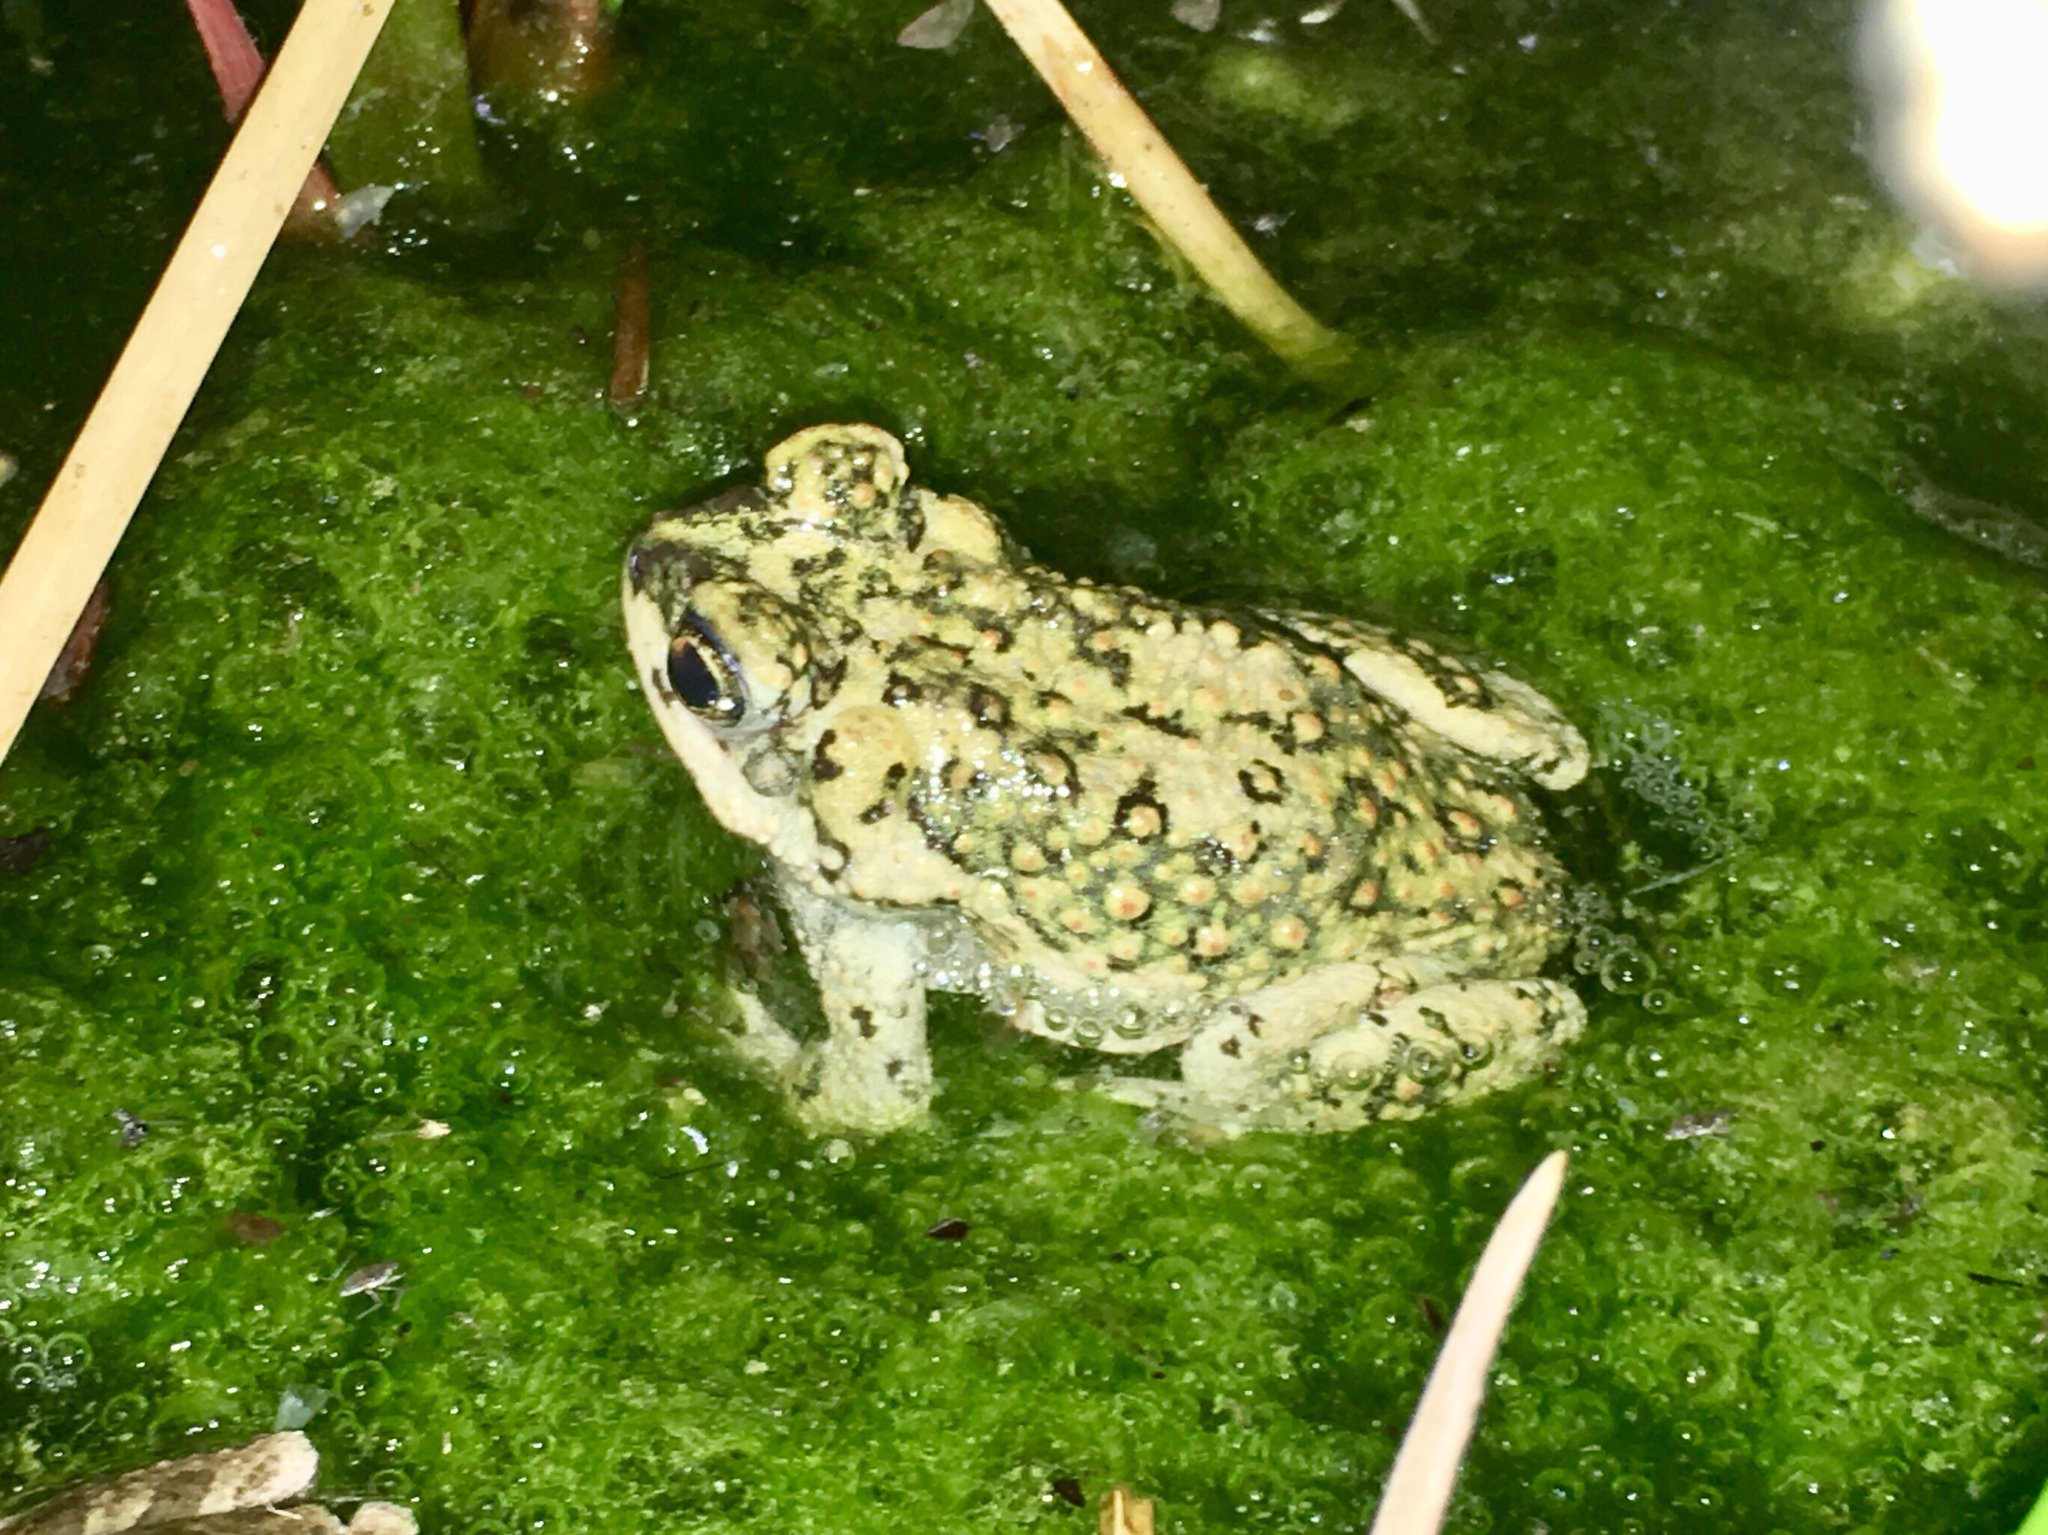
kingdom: Animalia
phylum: Chordata
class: Amphibia
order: Anura
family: Bufonidae
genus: Anaxyrus
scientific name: Anaxyrus punctatus
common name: Red-spotted toad
